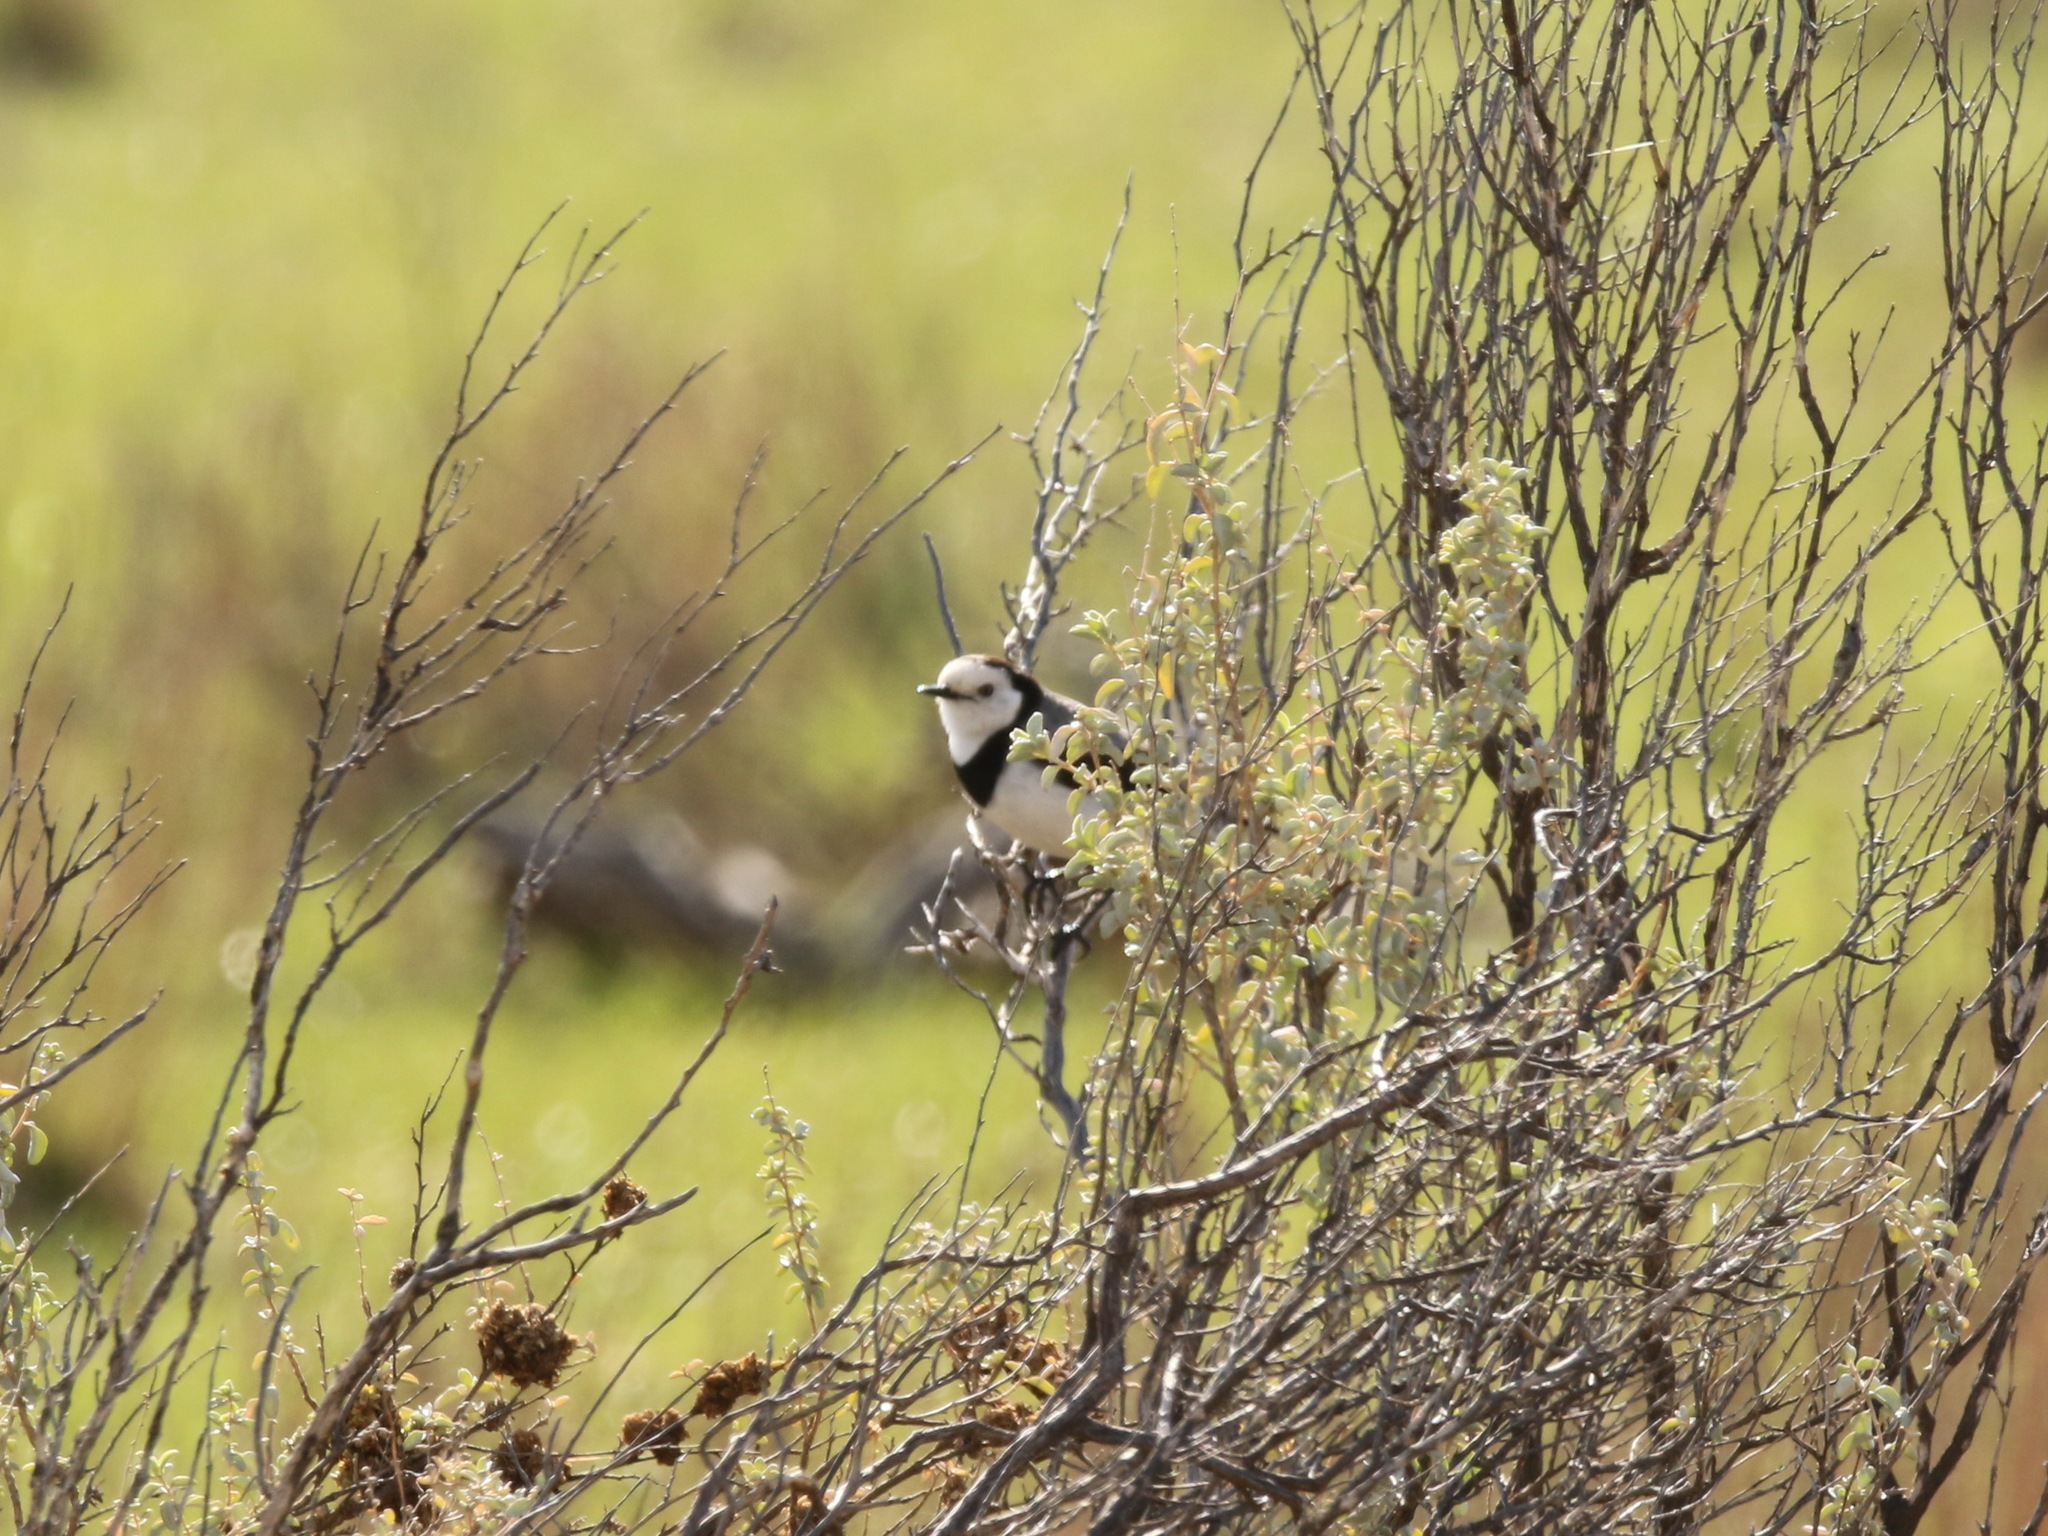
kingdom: Animalia
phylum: Chordata
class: Aves
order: Passeriformes
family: Meliphagidae
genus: Epthianura
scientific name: Epthianura albifrons
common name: White-fronted chat
